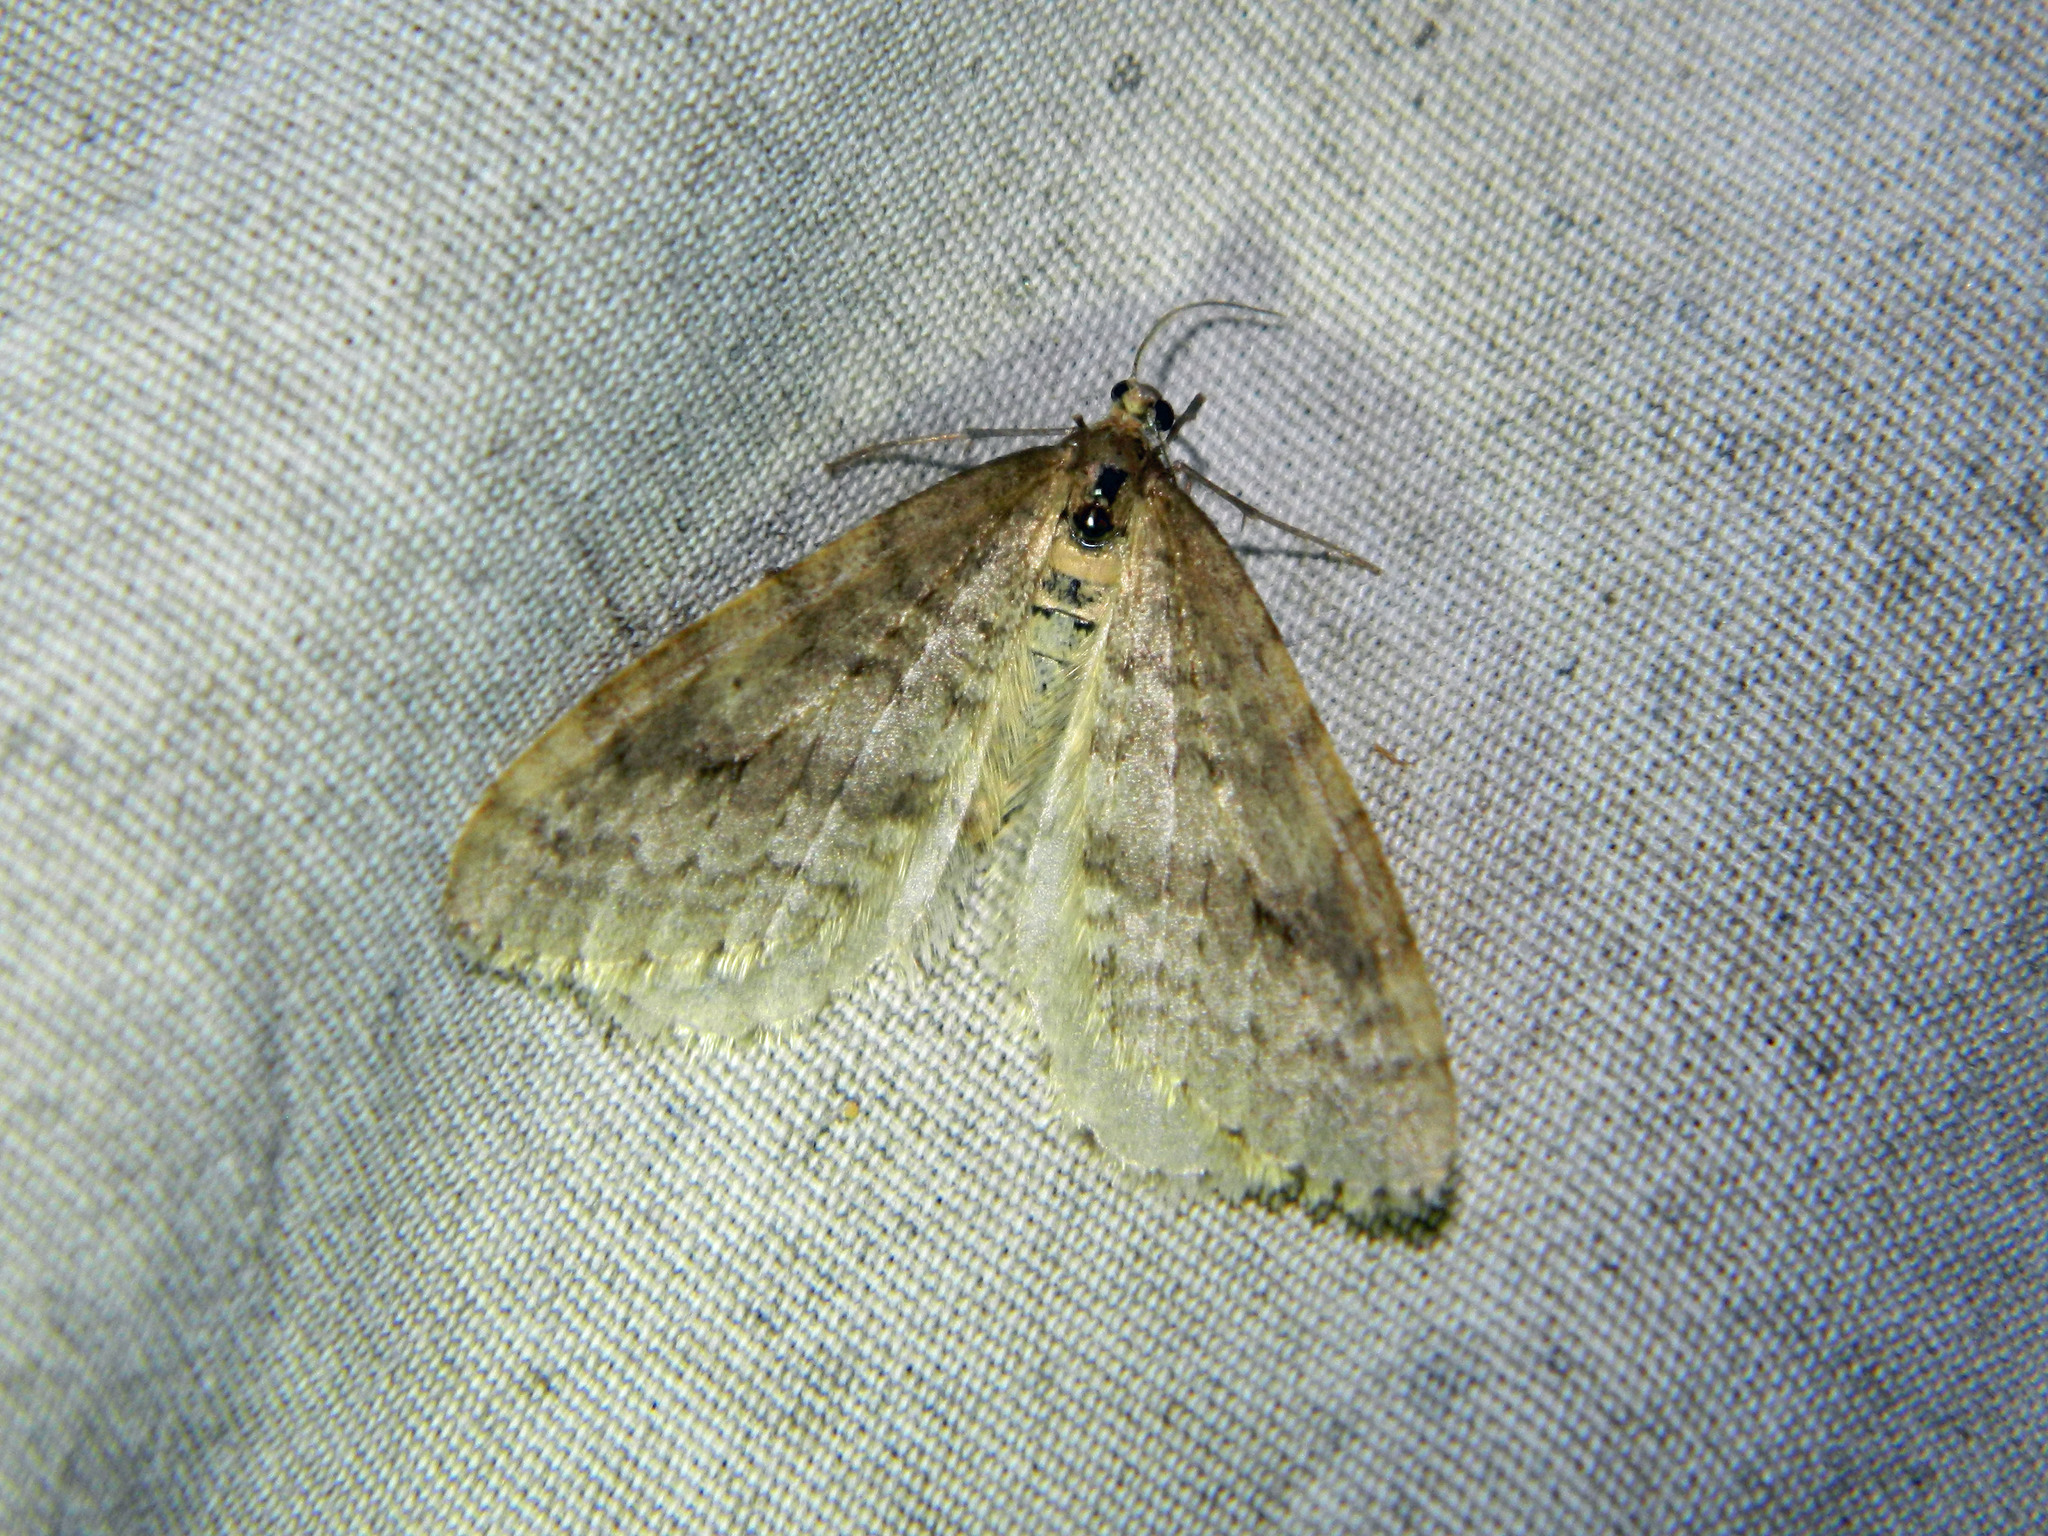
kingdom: Animalia
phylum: Arthropoda
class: Insecta
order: Lepidoptera
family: Geometridae
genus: Operophtera
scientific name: Operophtera bruceata
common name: Bruce spanworm
